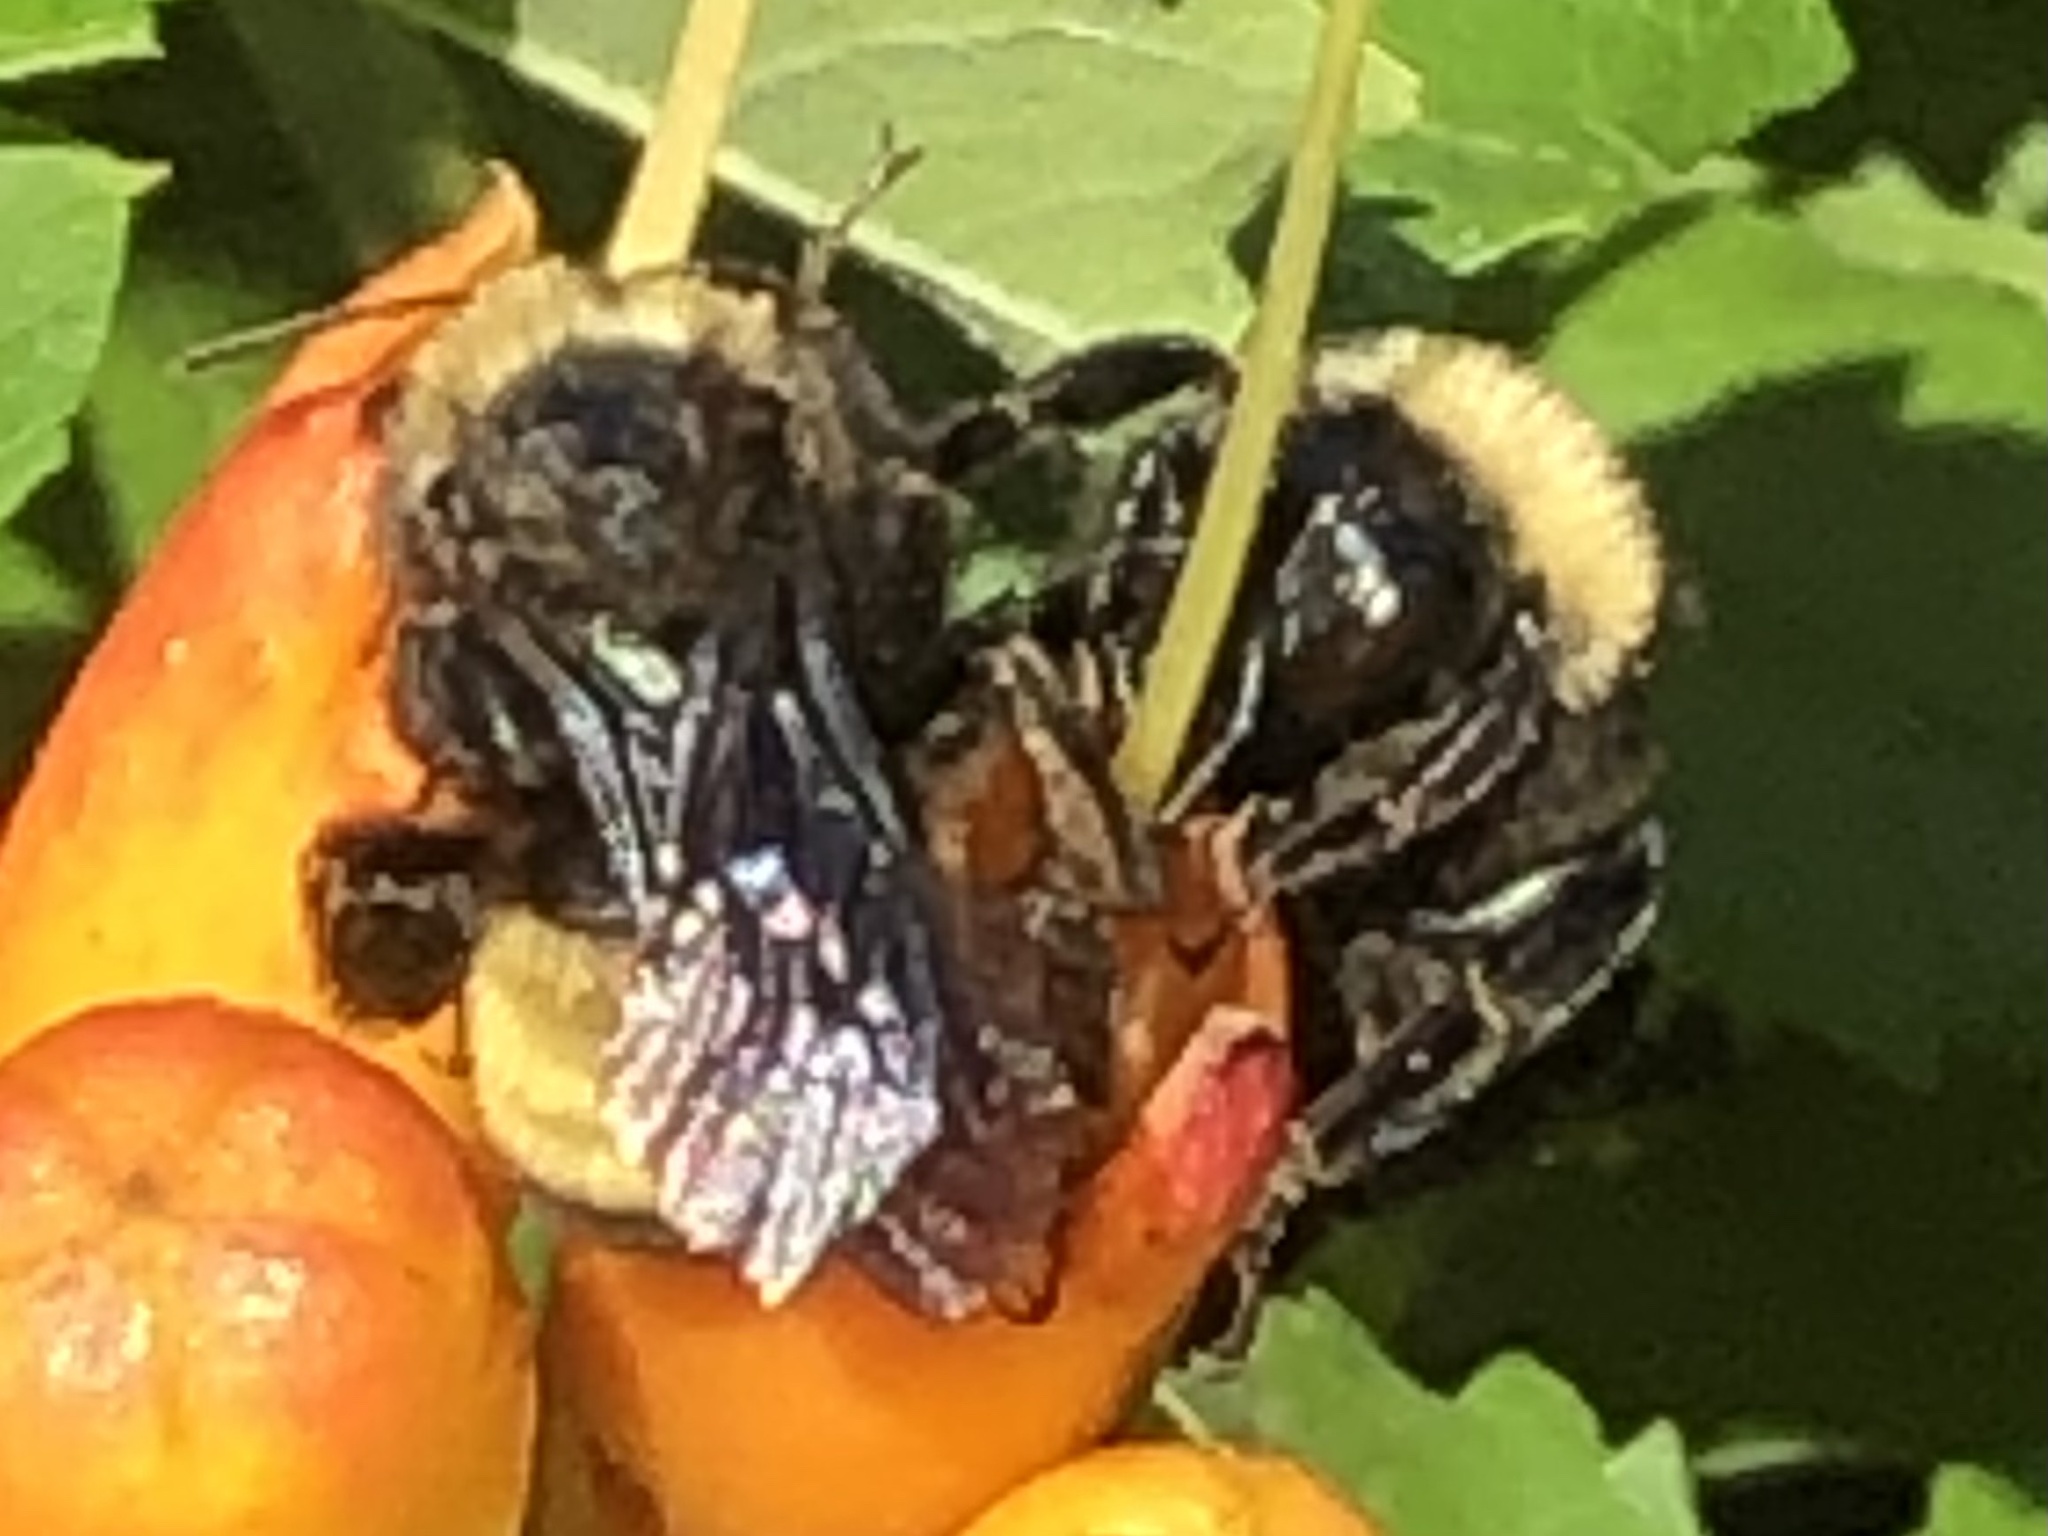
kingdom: Animalia
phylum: Arthropoda
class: Insecta
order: Hymenoptera
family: Apidae
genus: Bombus
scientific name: Bombus pensylvanicus
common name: Bumble bee
